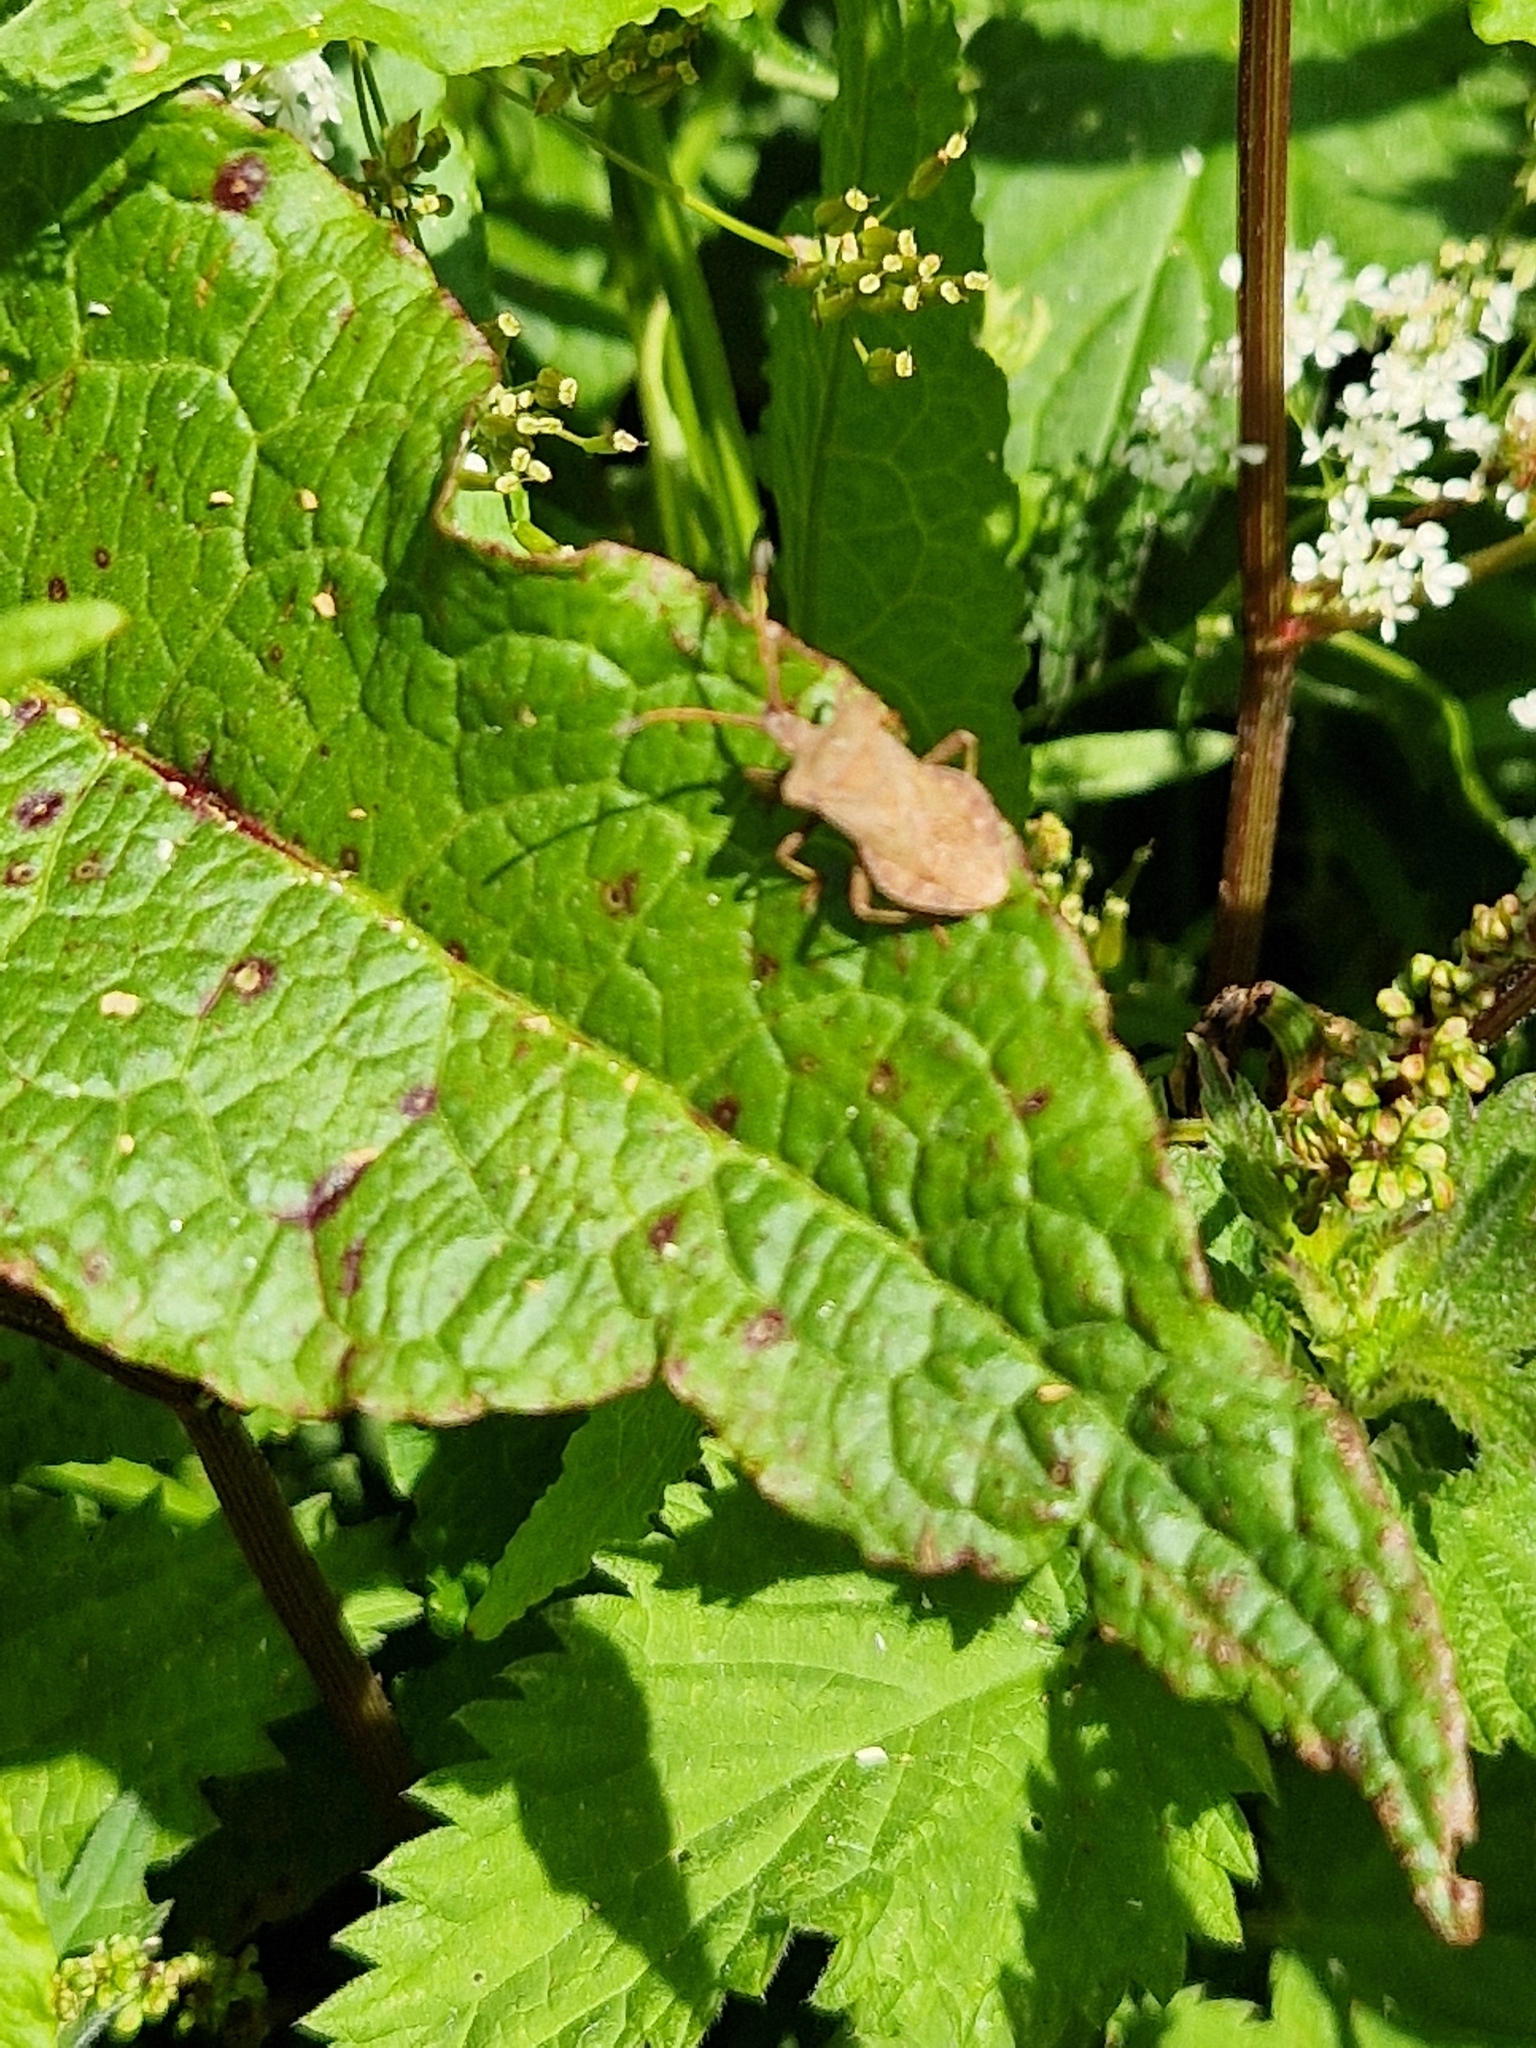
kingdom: Animalia
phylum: Arthropoda
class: Insecta
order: Hemiptera
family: Coreidae
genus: Coreus
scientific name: Coreus marginatus
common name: Dock bug
